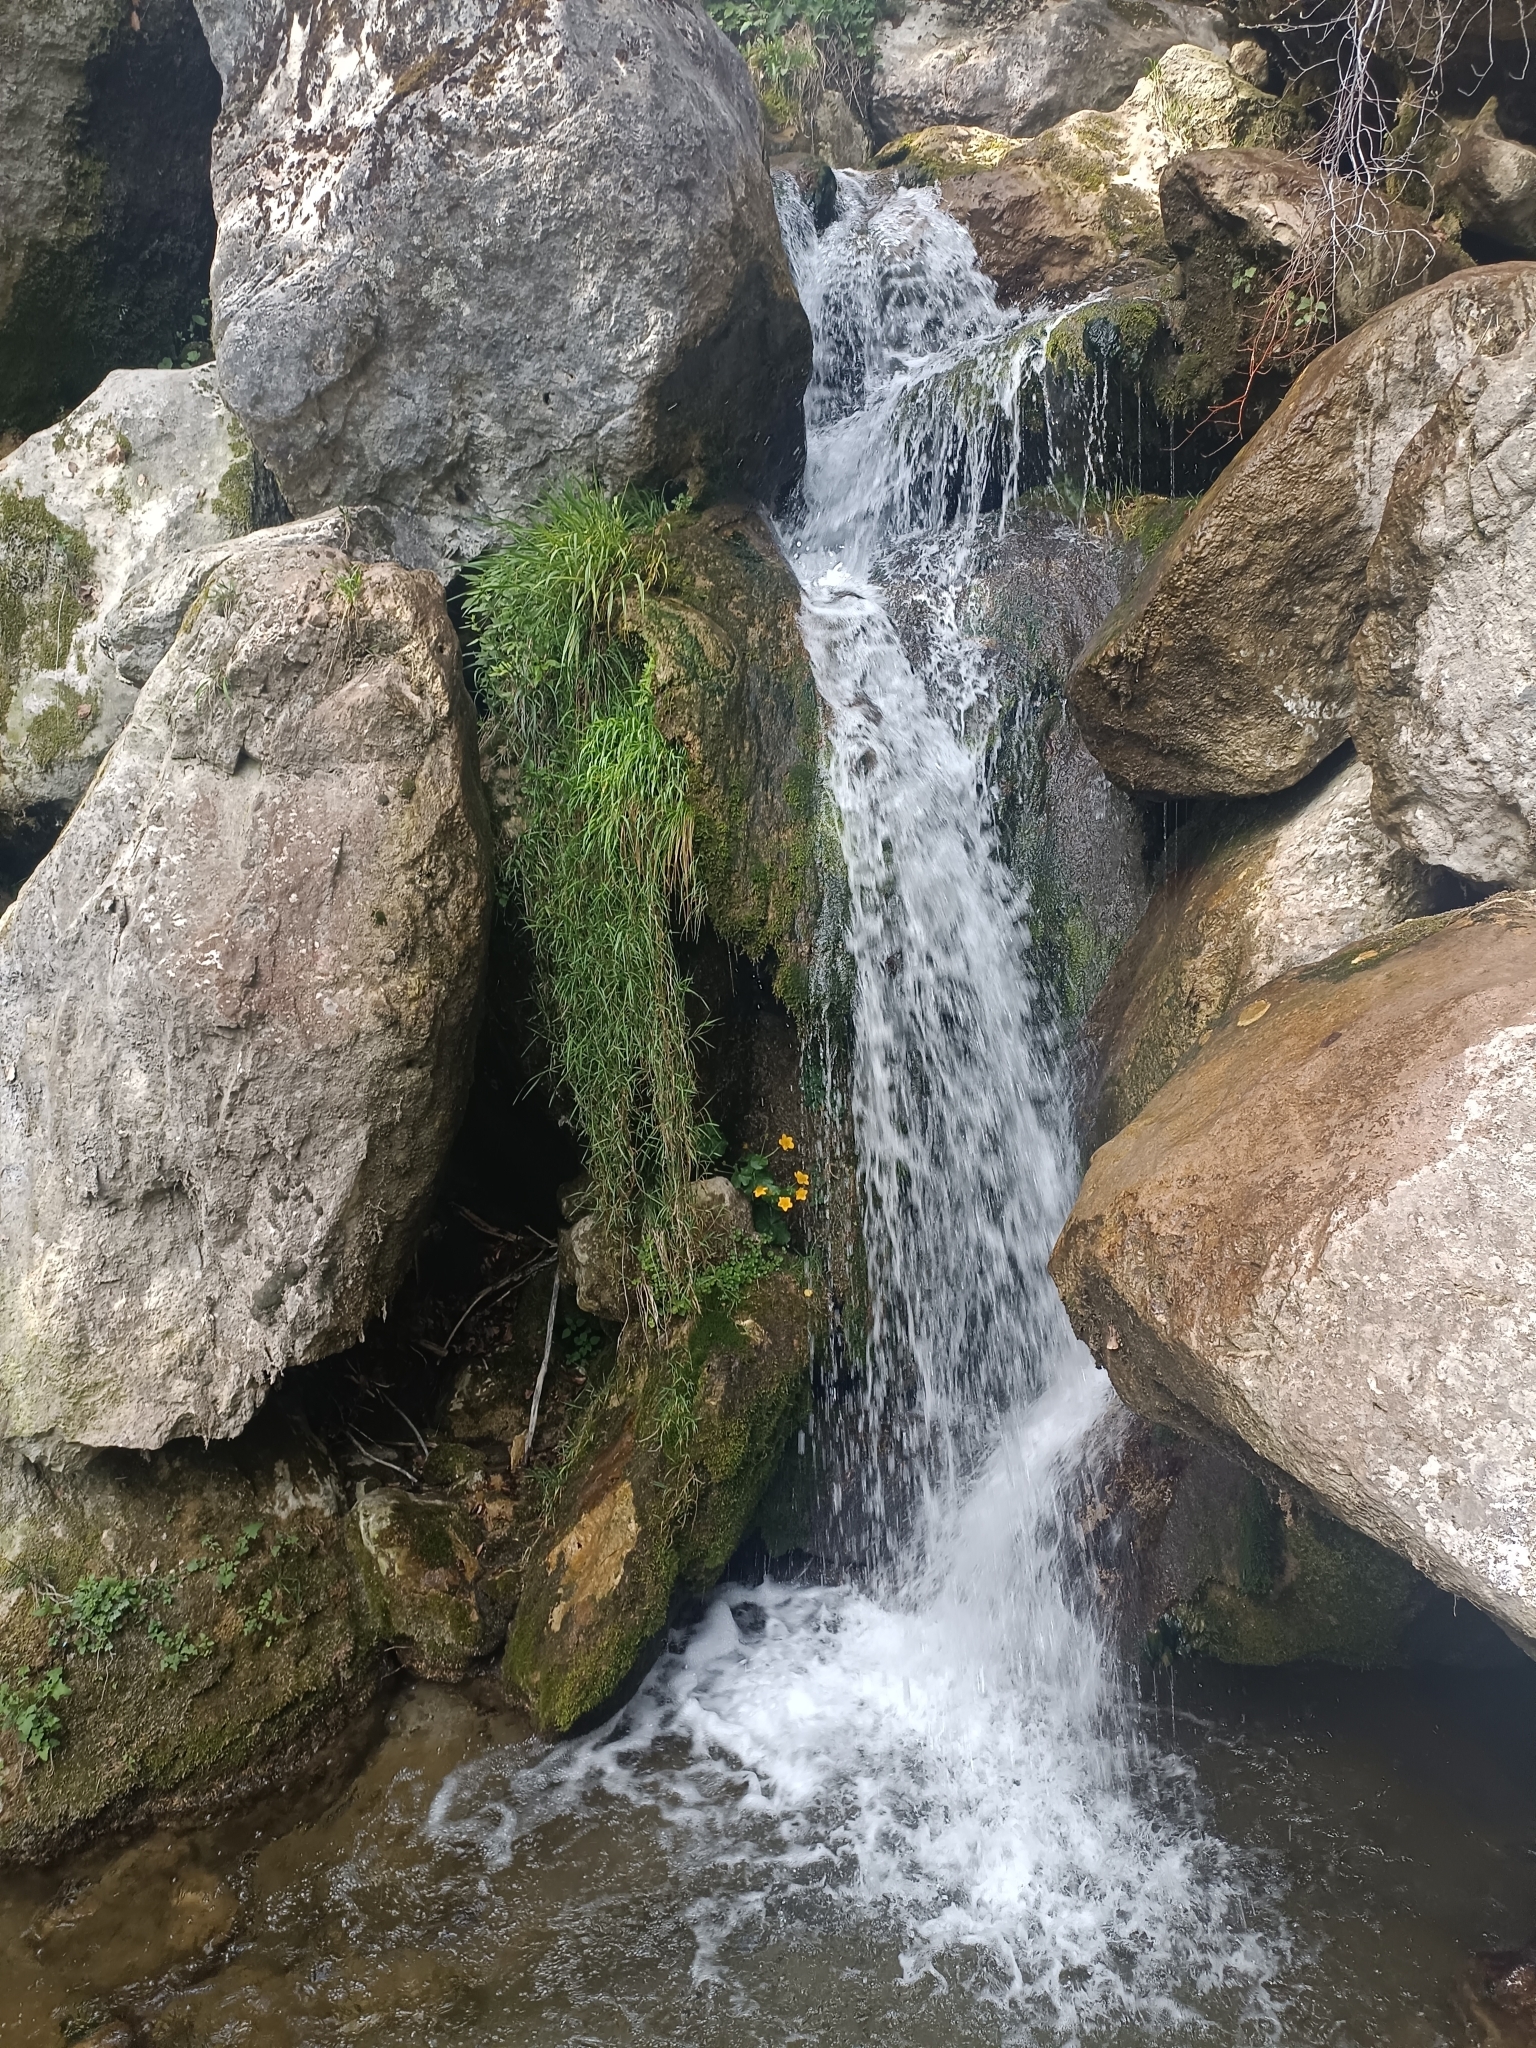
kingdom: Plantae
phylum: Tracheophyta
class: Magnoliopsida
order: Ranunculales
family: Ranunculaceae
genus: Caltha
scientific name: Caltha palustris
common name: Marsh marigold
